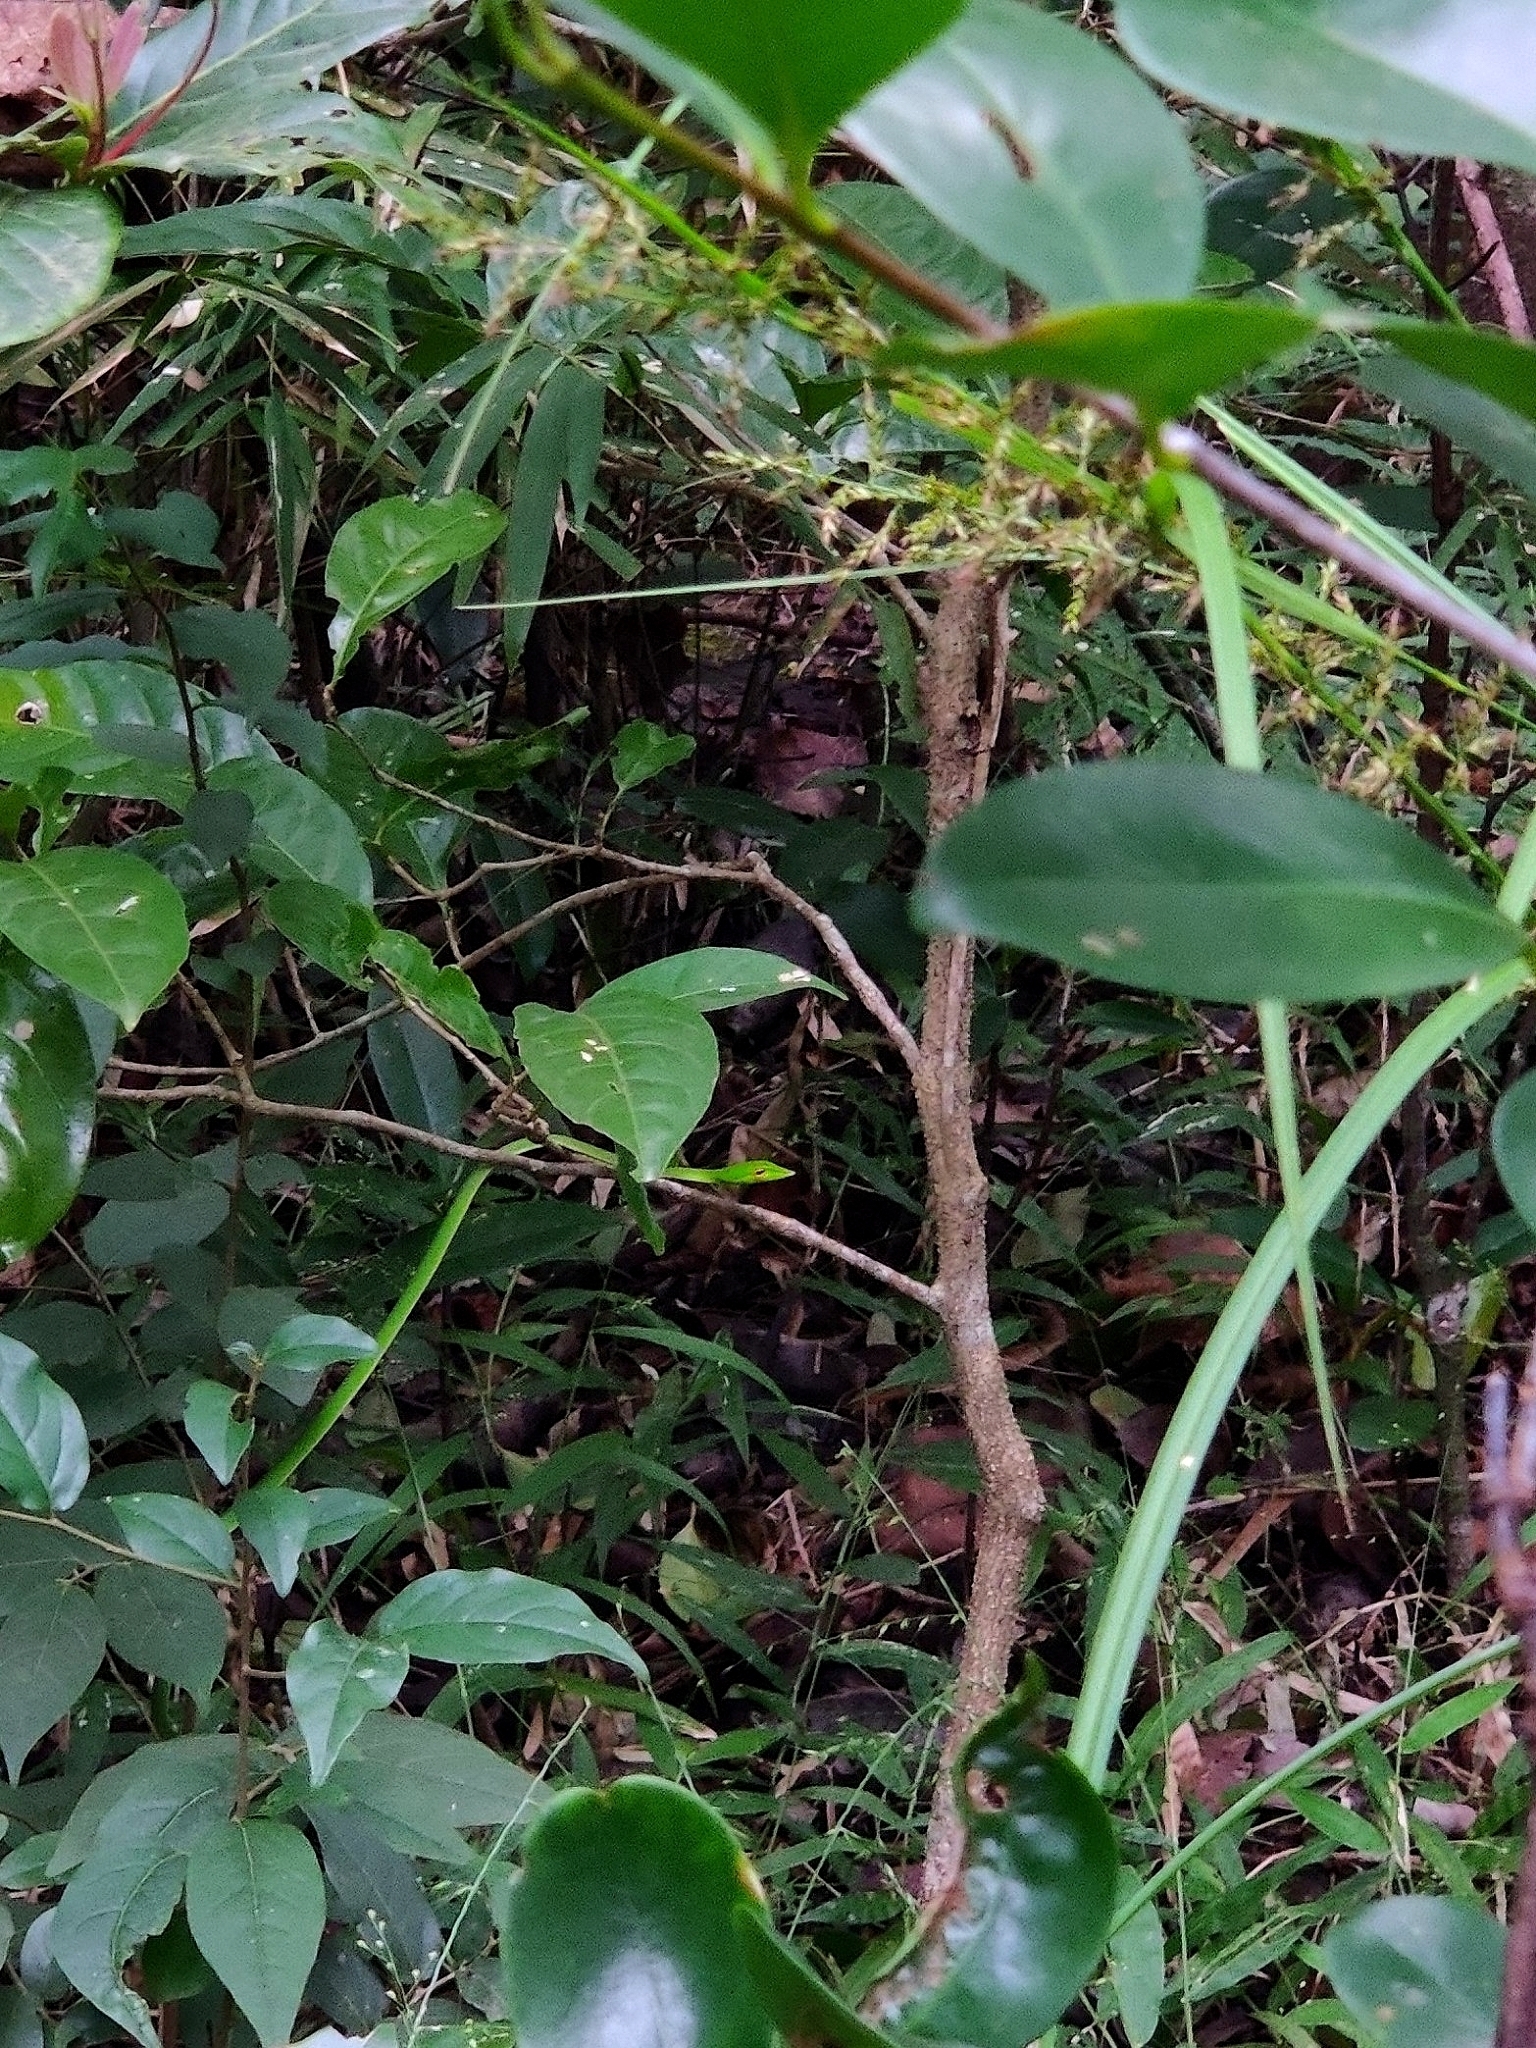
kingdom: Animalia
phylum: Chordata
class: Squamata
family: Colubridae
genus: Ahaetulla
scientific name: Ahaetulla borealis
